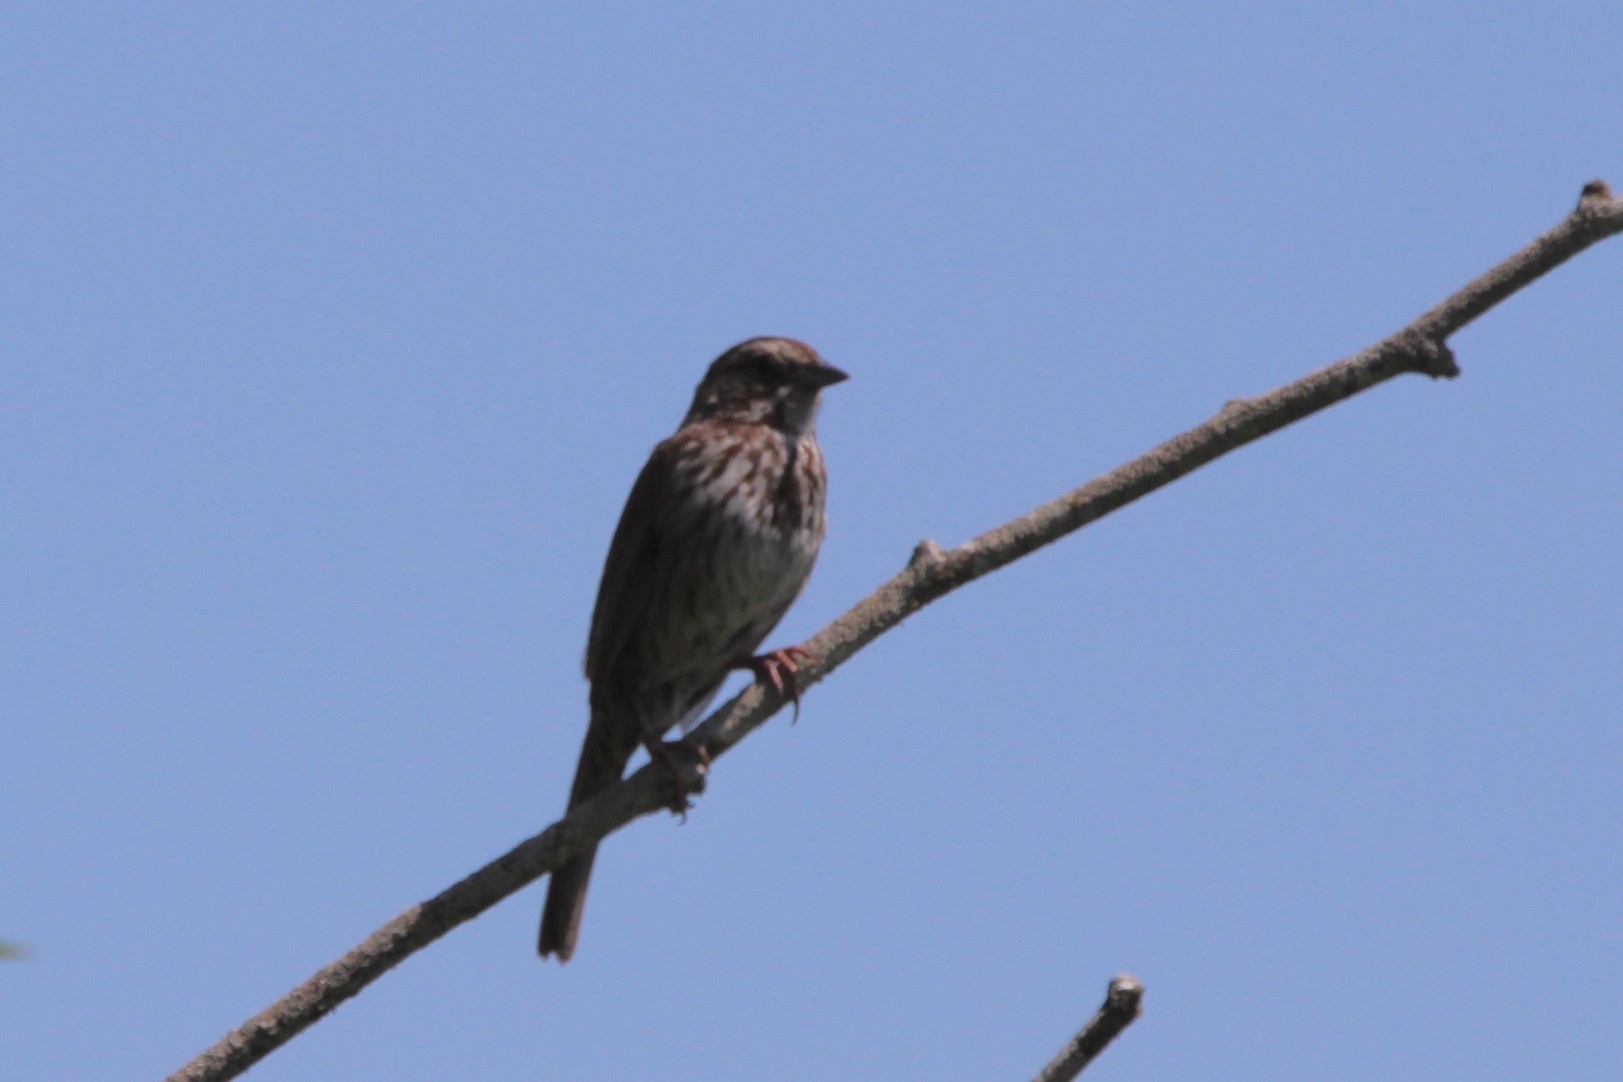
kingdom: Animalia
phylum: Chordata
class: Aves
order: Passeriformes
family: Passerellidae
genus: Melospiza
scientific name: Melospiza melodia
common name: Song sparrow
